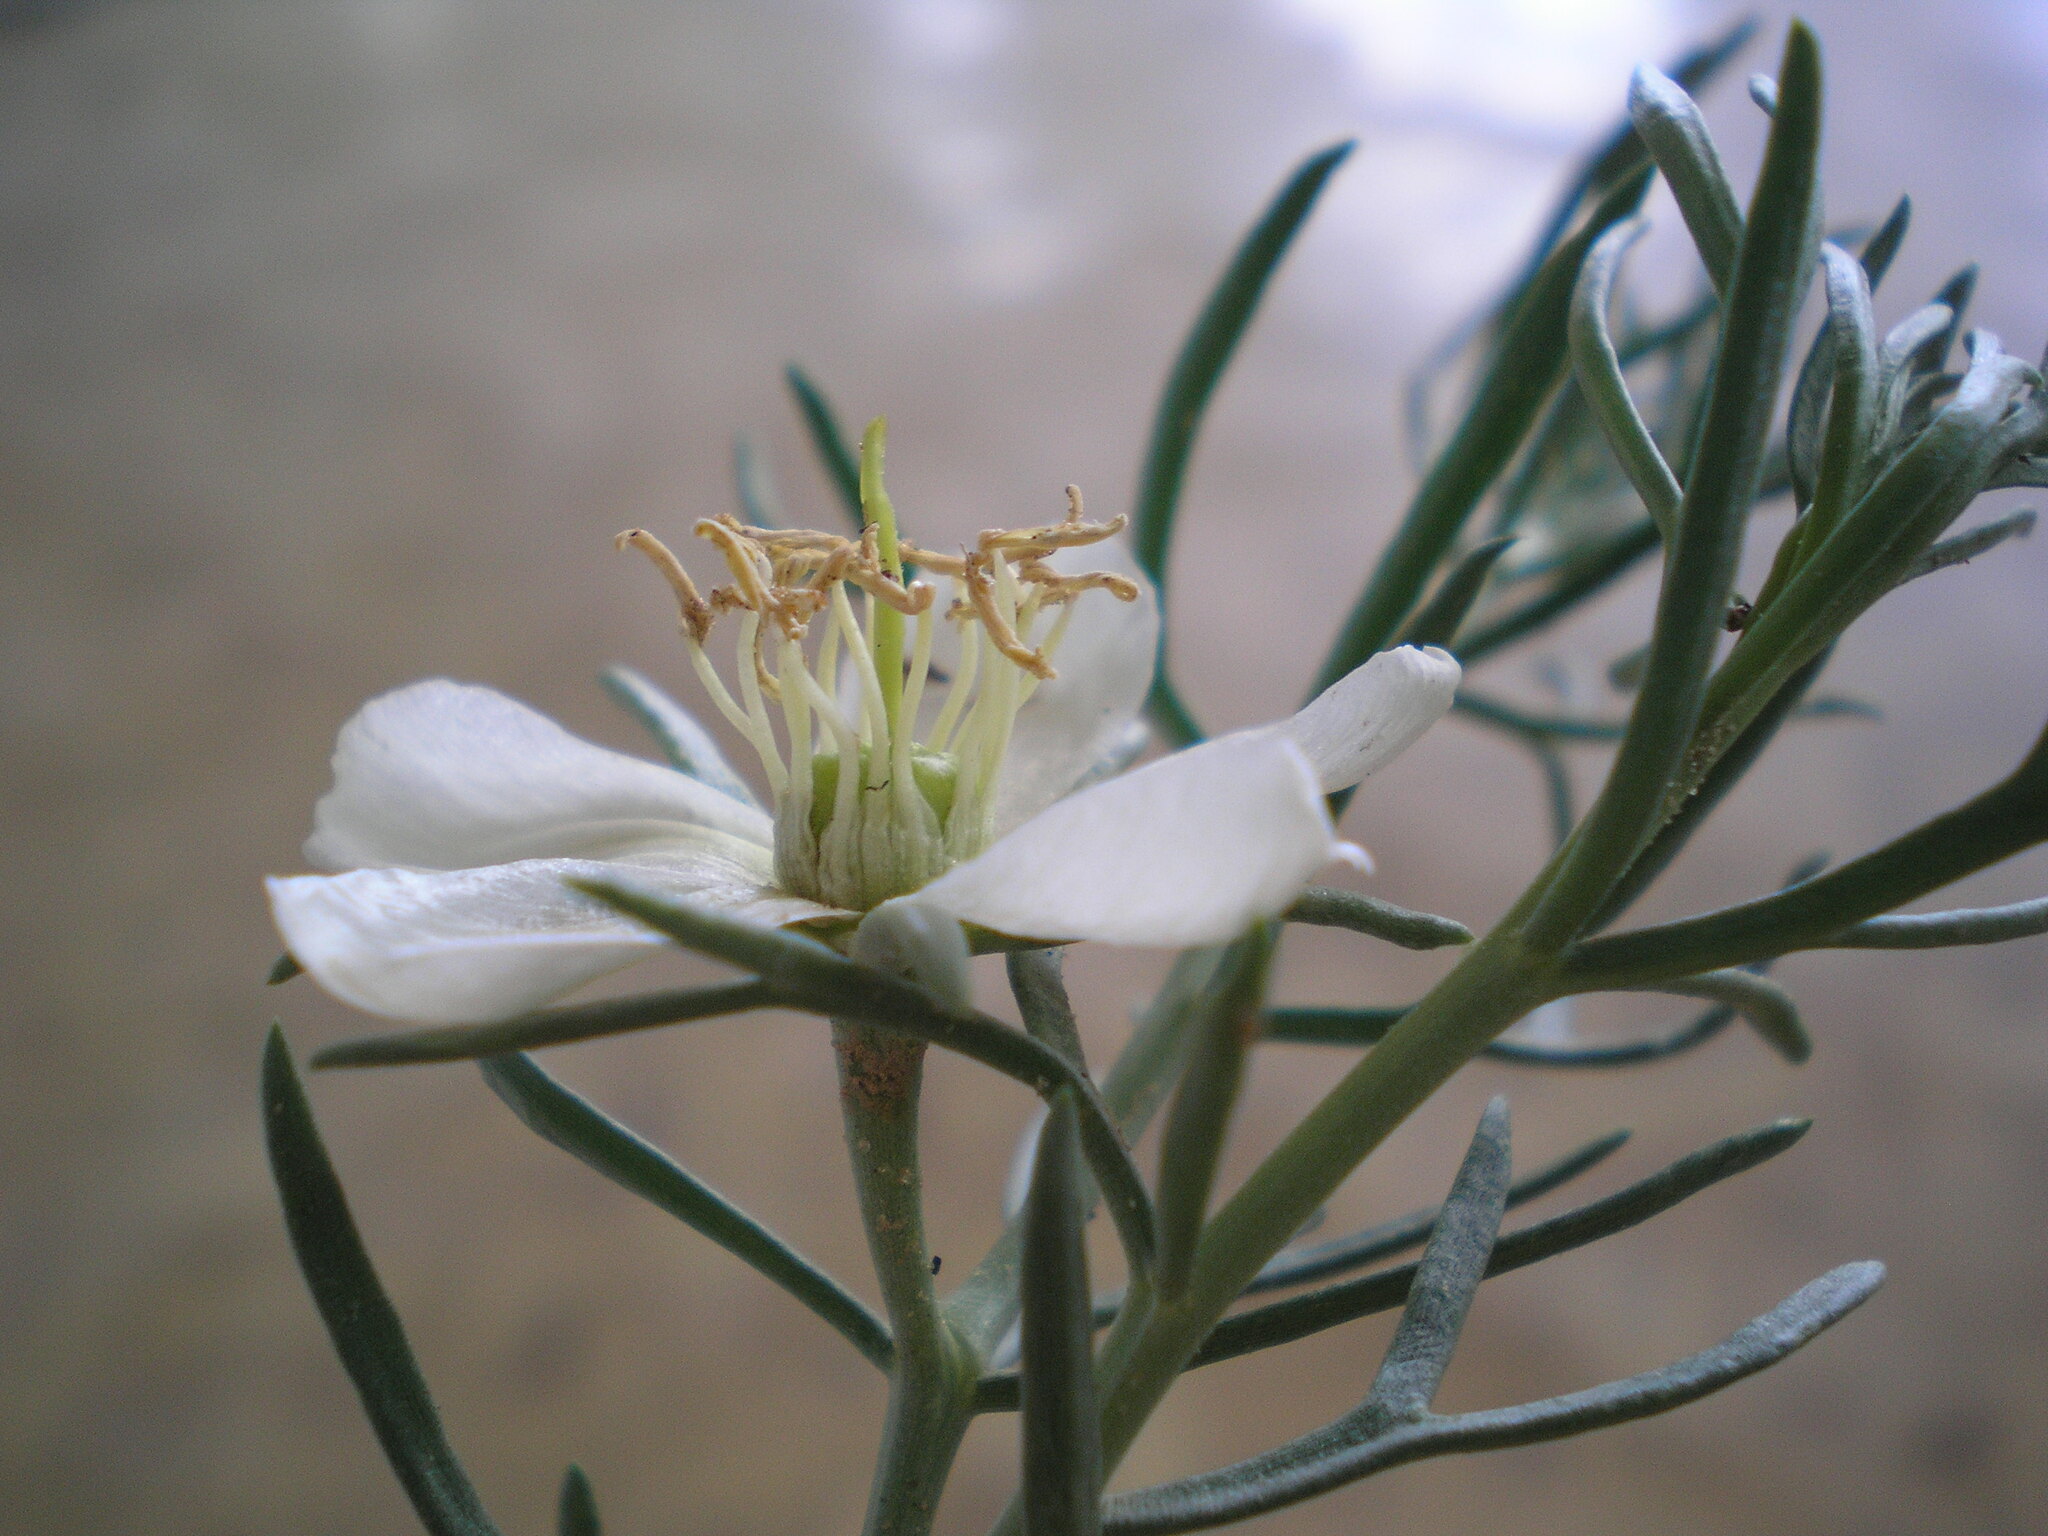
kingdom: Plantae
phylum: Tracheophyta
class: Magnoliopsida
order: Sapindales
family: Tetradiclidaceae
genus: Peganum
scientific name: Peganum harmala
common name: Harmal peganum
